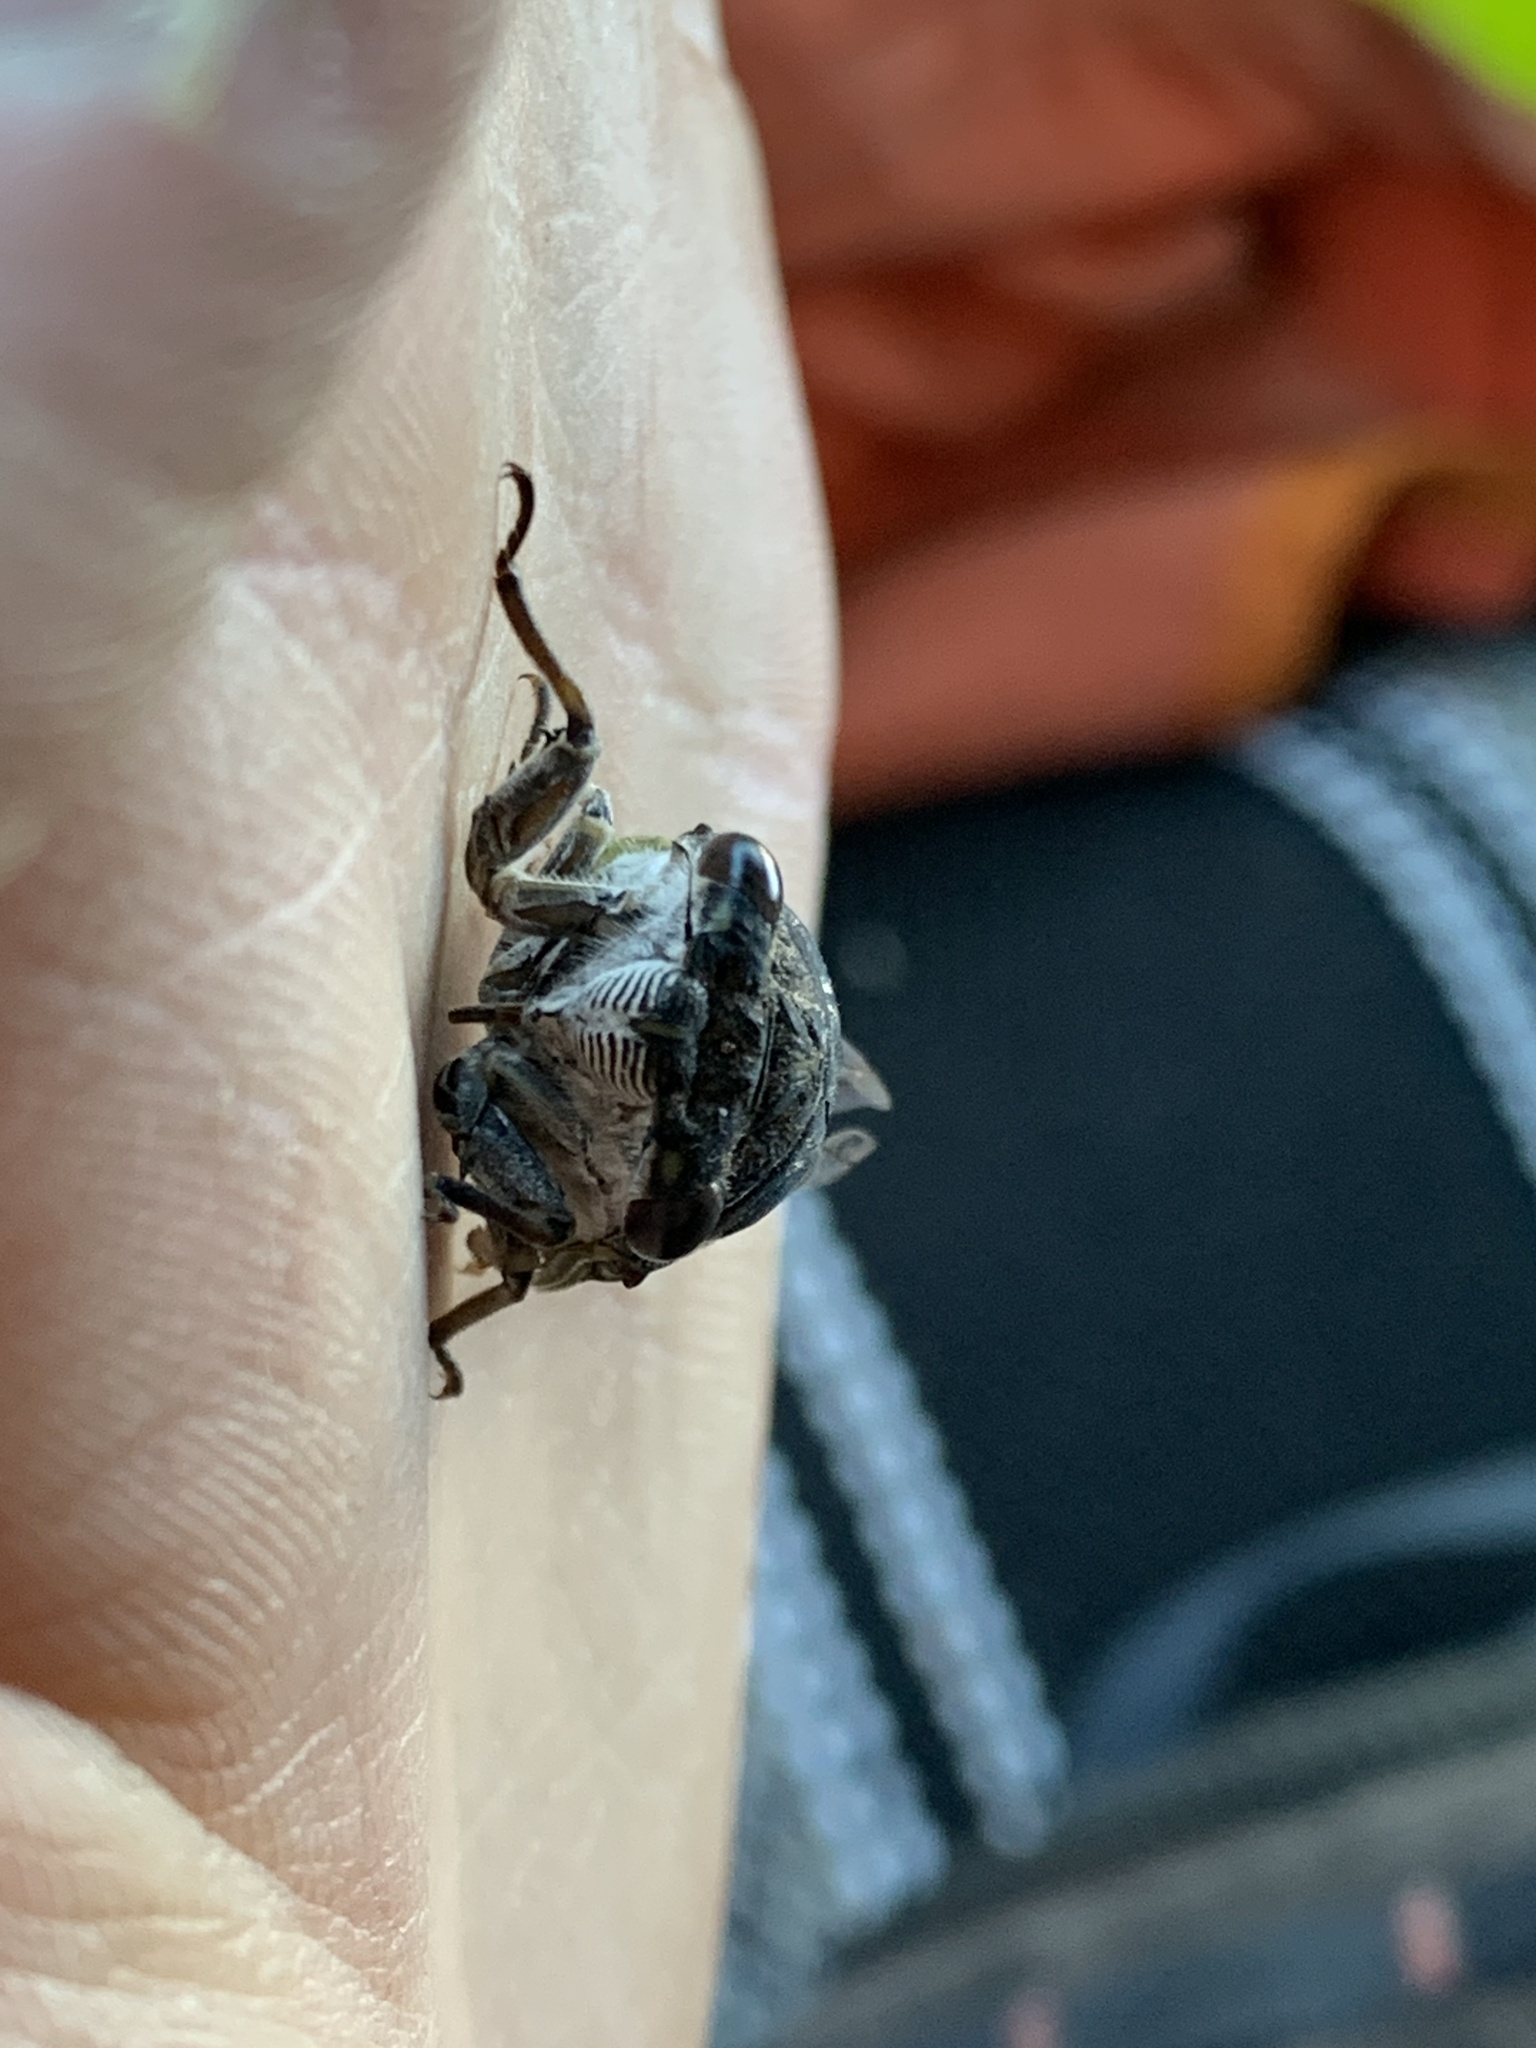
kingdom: Animalia
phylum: Arthropoda
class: Insecta
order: Hemiptera
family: Cicadidae
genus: Neotibicen
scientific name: Neotibicen canicularis
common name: God-day cicada
